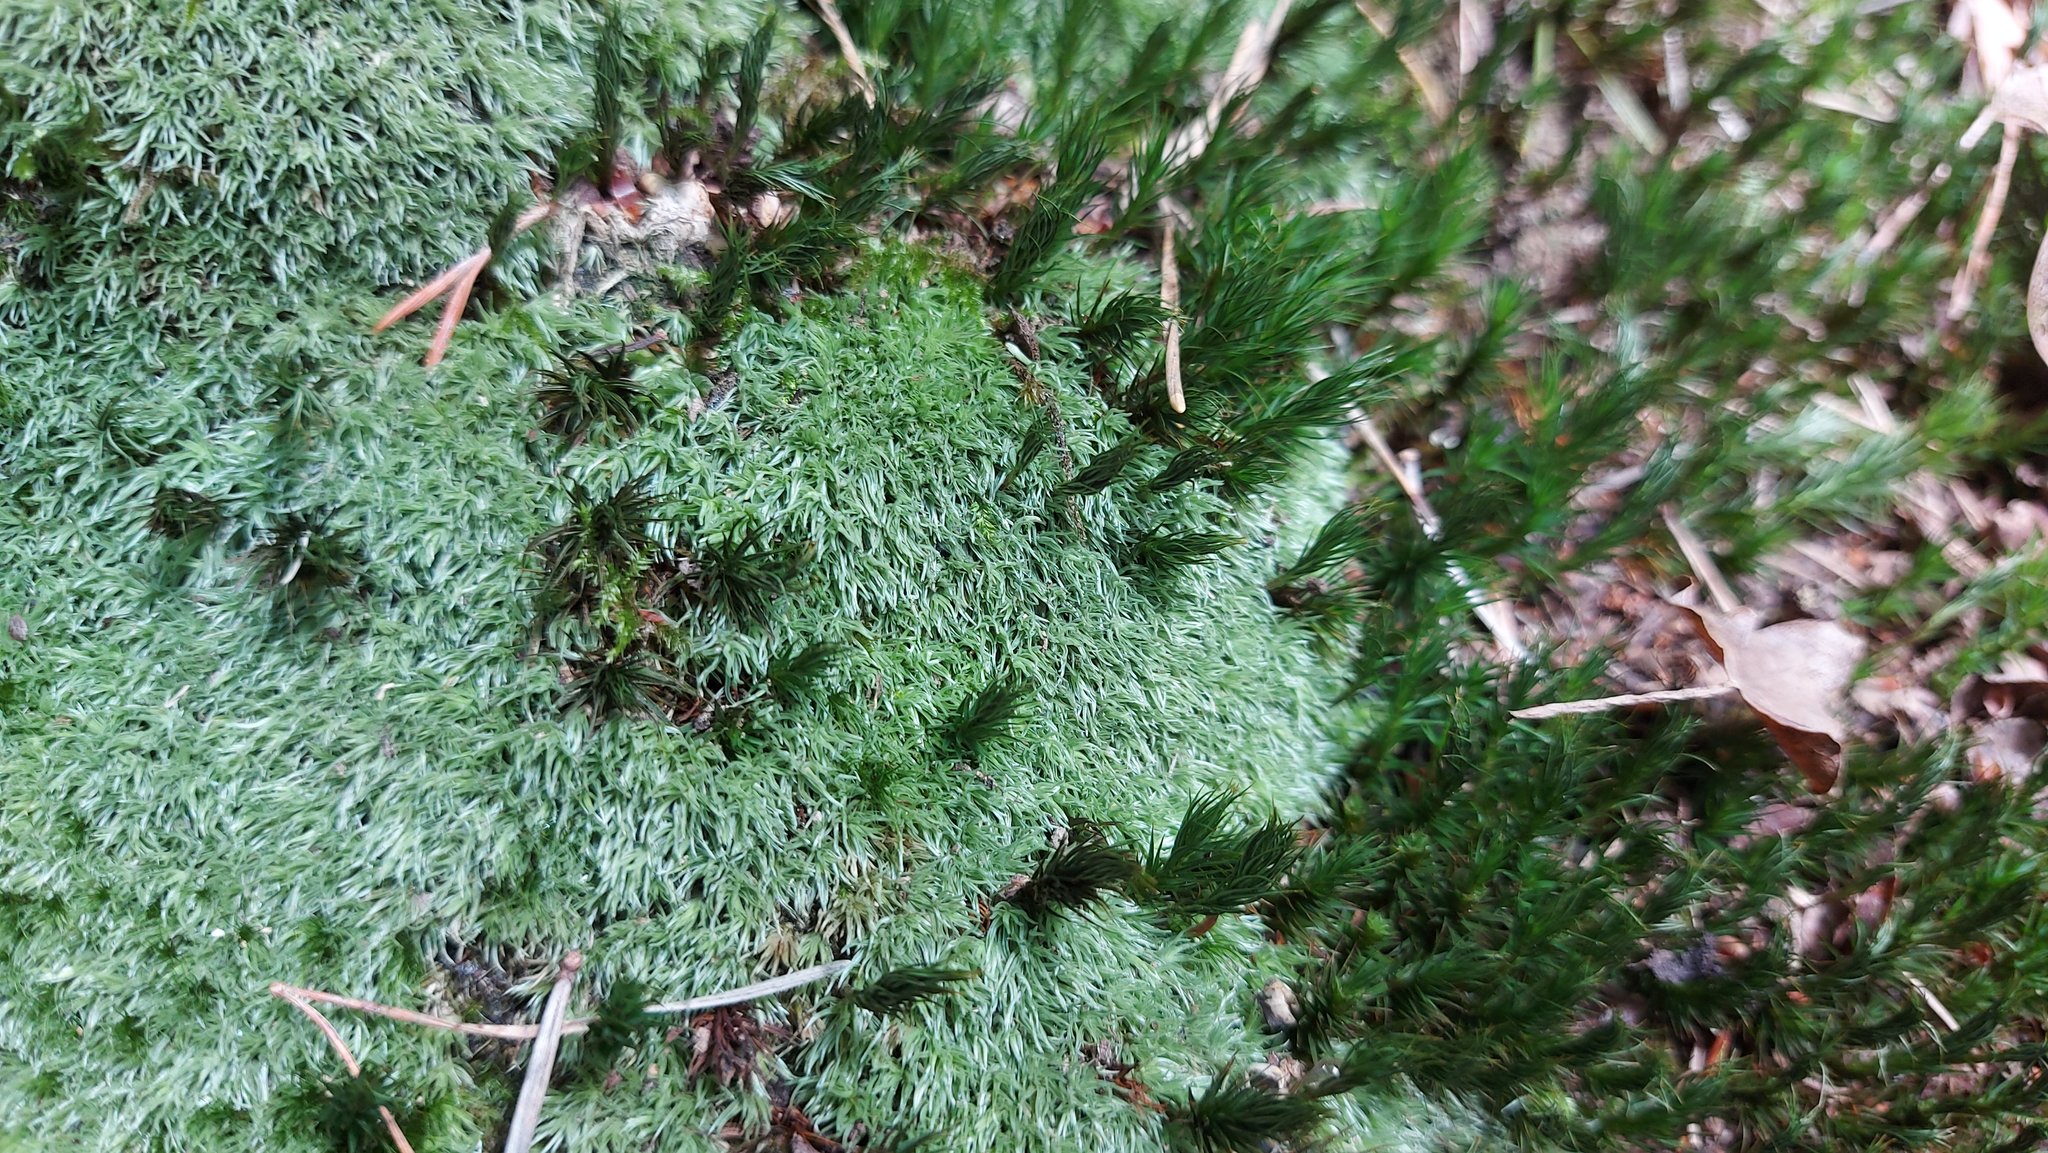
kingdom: Plantae
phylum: Bryophyta
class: Bryopsida
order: Dicranales
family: Leucobryaceae
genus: Leucobryum
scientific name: Leucobryum glaucum
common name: Large white-moss
